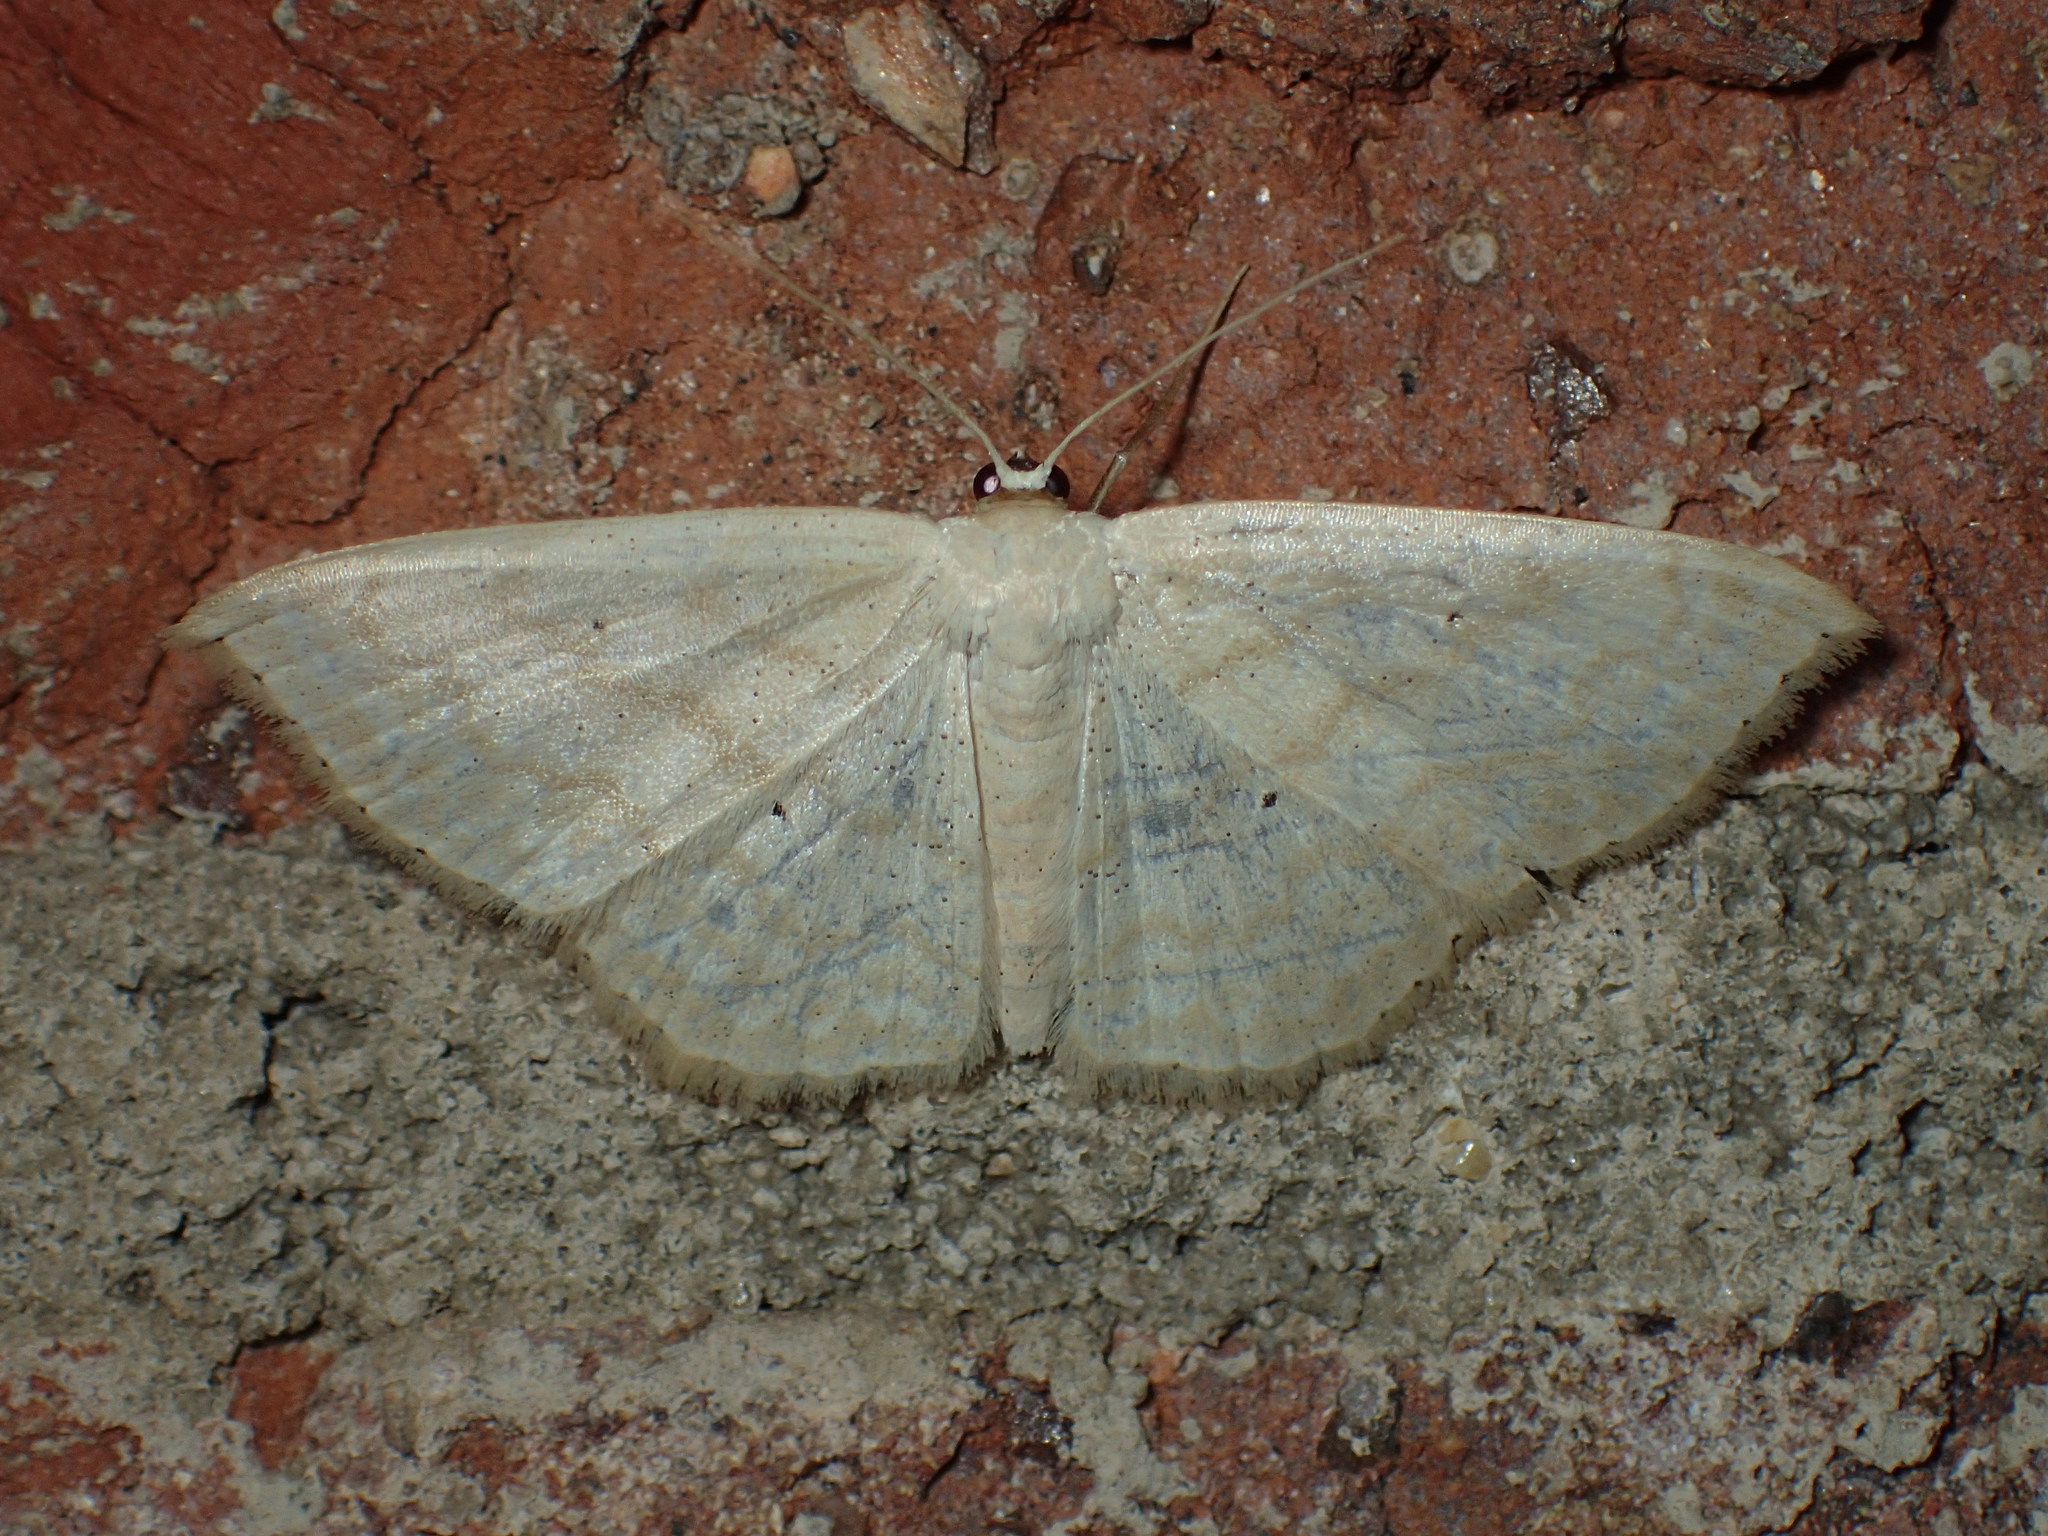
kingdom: Animalia
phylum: Arthropoda
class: Insecta
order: Lepidoptera
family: Geometridae
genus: Scopula
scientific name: Scopula inductata
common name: Soft-lined wave
